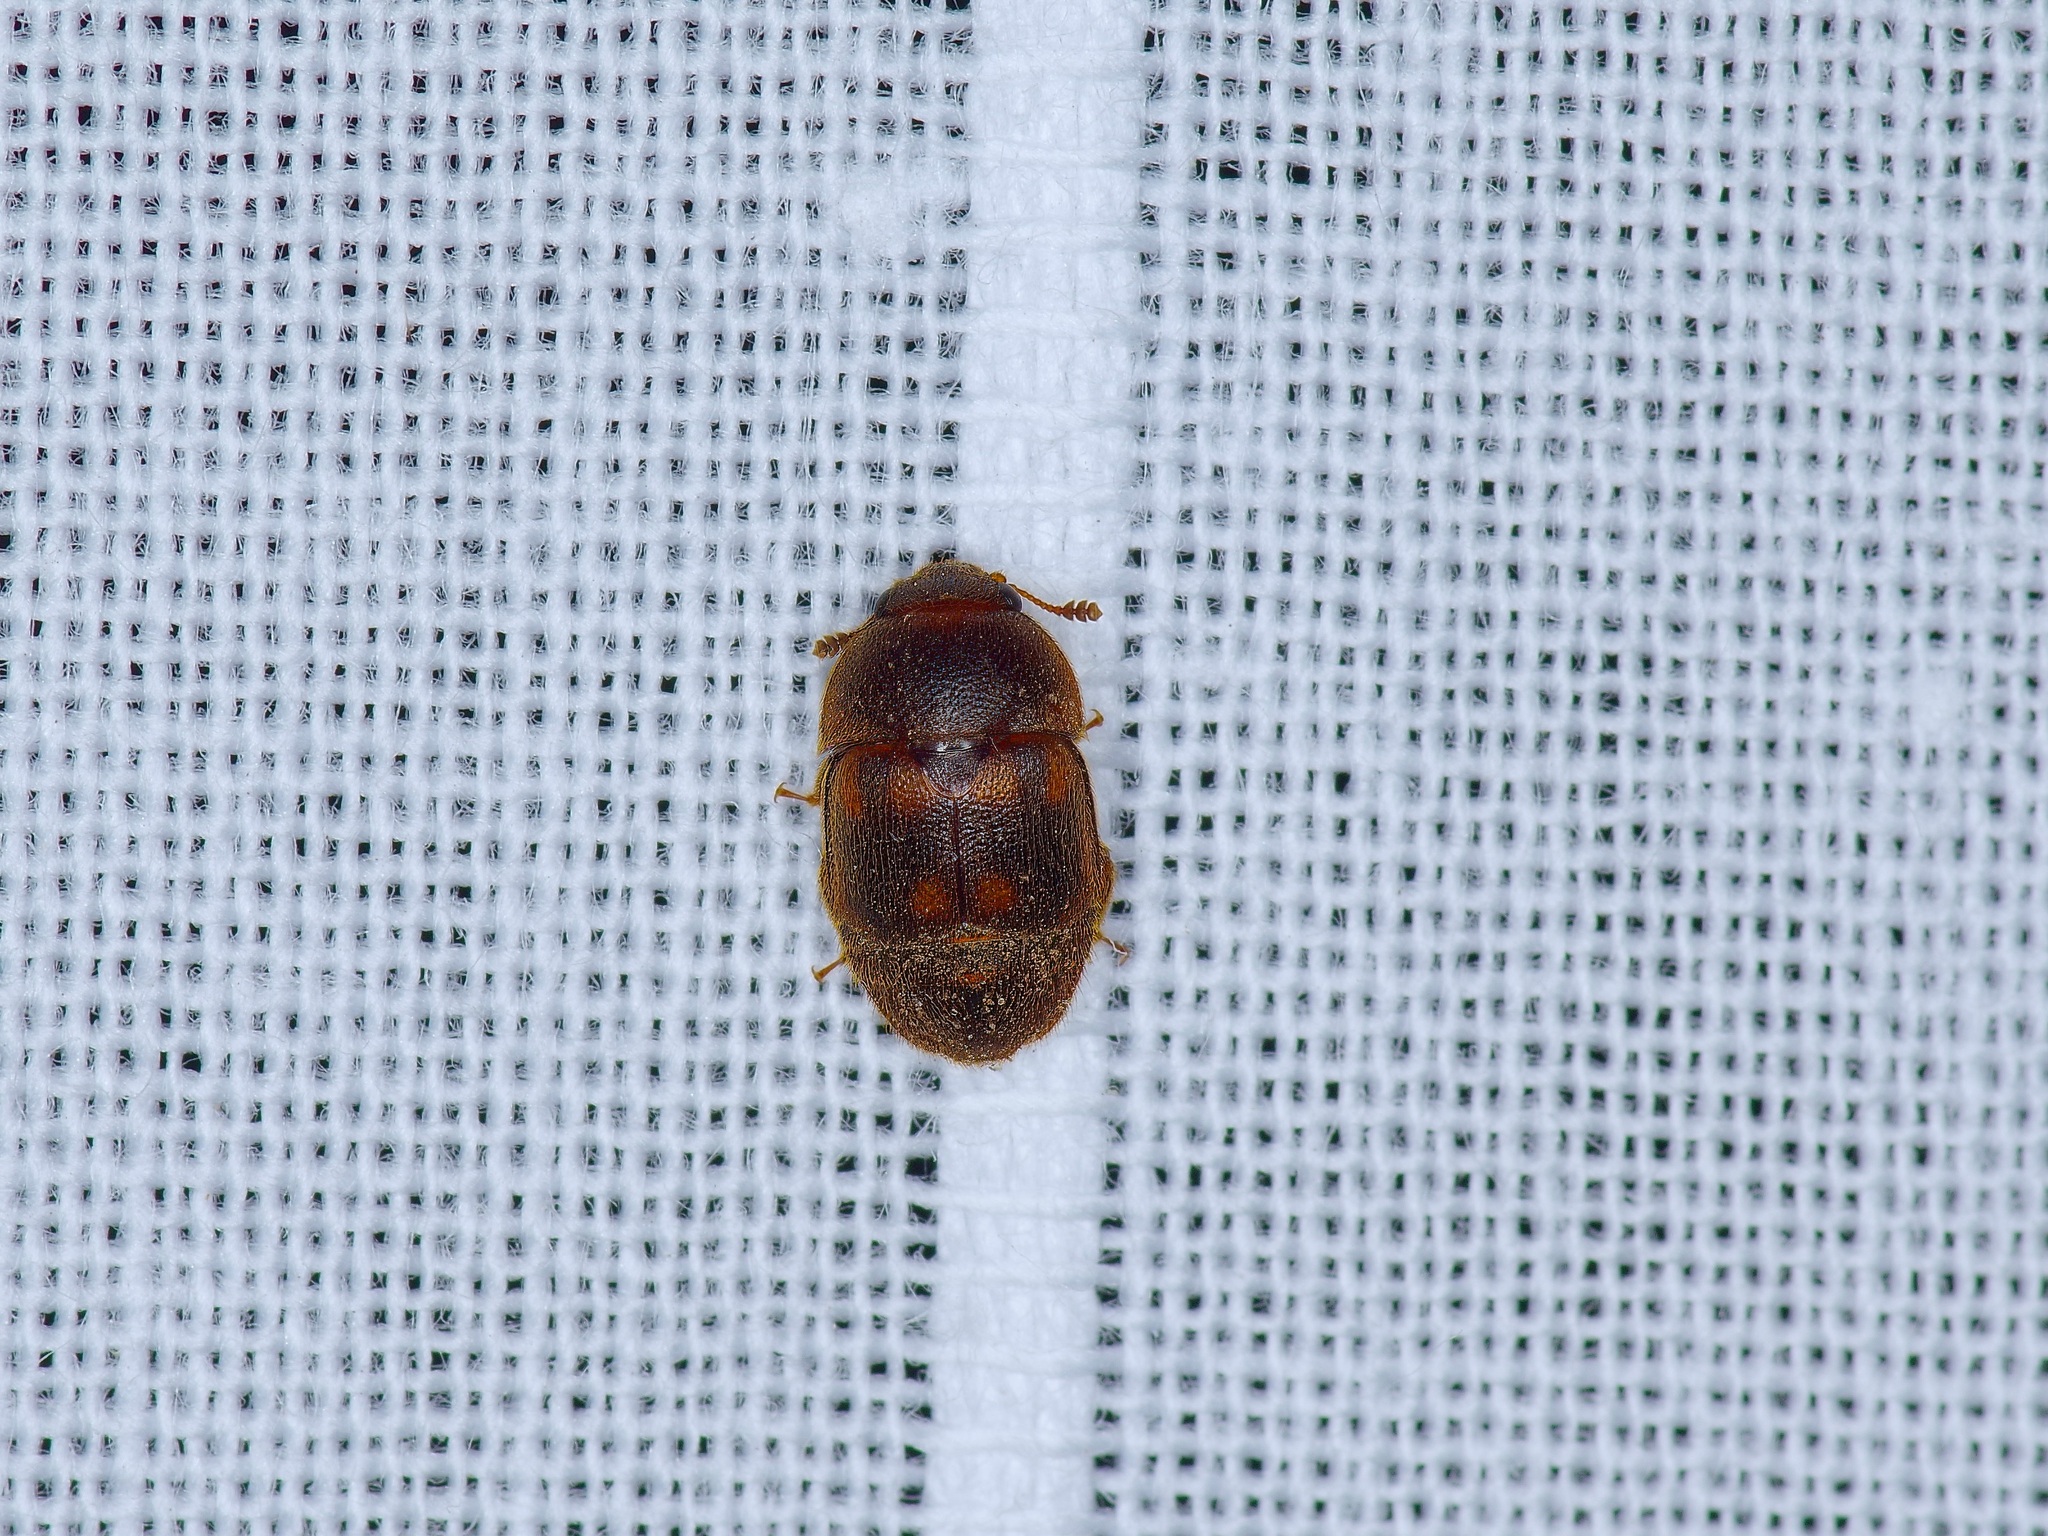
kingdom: Animalia
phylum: Arthropoda
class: Insecta
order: Coleoptera
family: Nitidulidae
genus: Colopterus
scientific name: Colopterus maculatus
